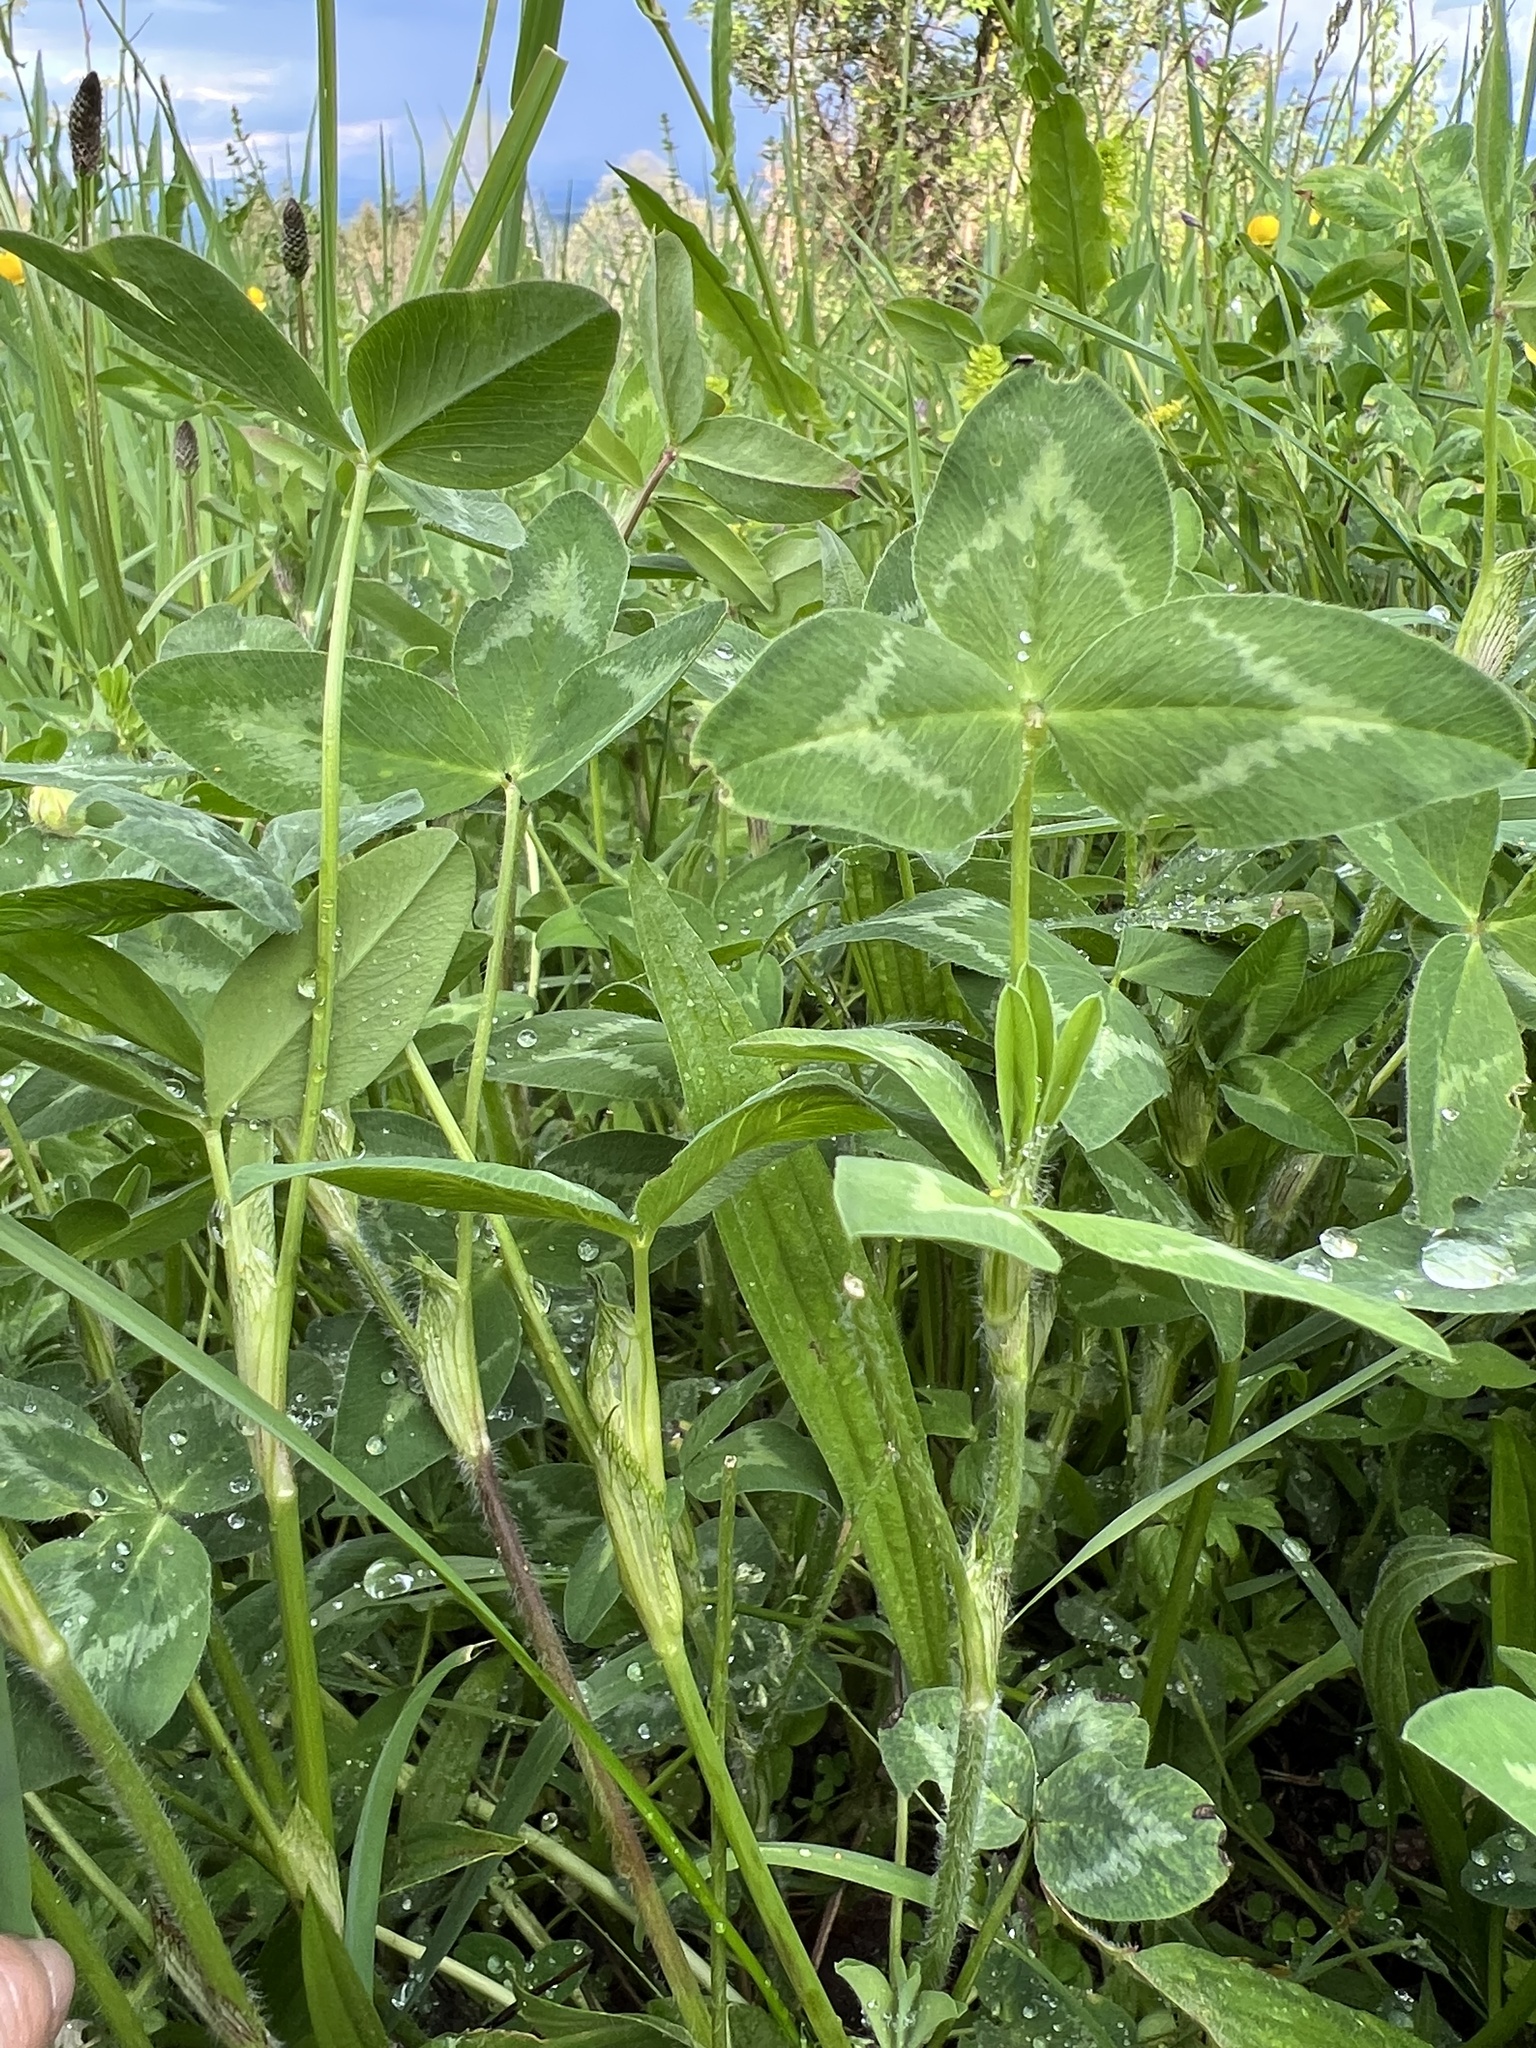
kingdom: Plantae
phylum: Tracheophyta
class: Magnoliopsida
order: Fabales
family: Fabaceae
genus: Trifolium
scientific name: Trifolium pratense
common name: Red clover
